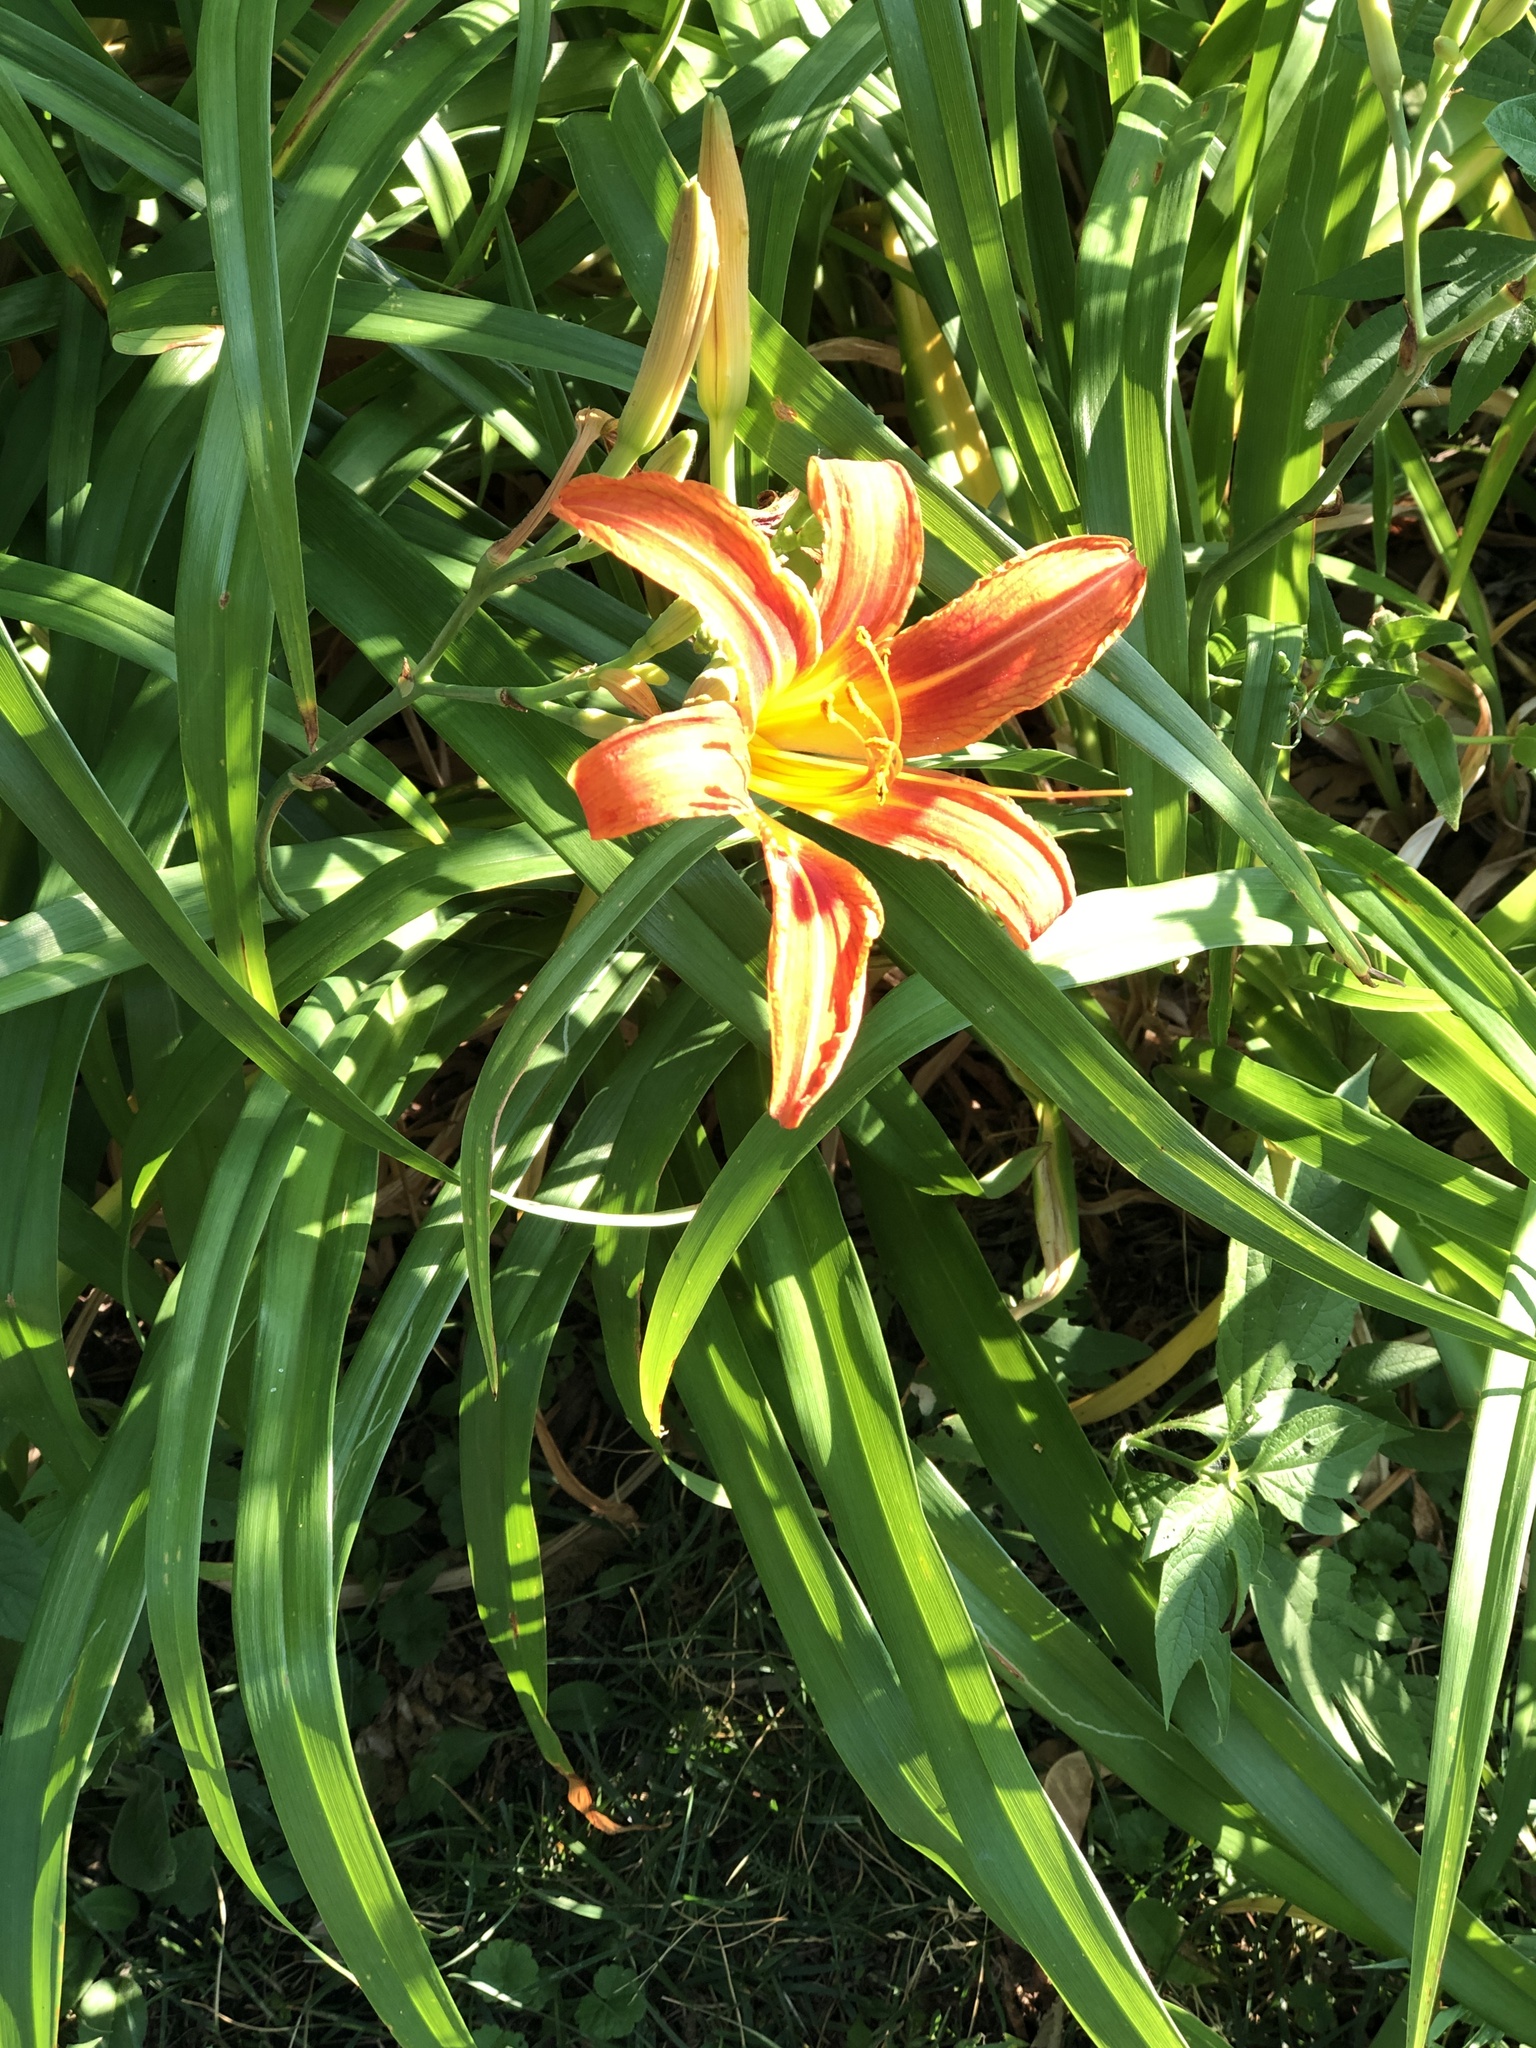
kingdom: Plantae
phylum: Tracheophyta
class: Liliopsida
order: Asparagales
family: Asphodelaceae
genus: Hemerocallis
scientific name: Hemerocallis fulva
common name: Orange day-lily
